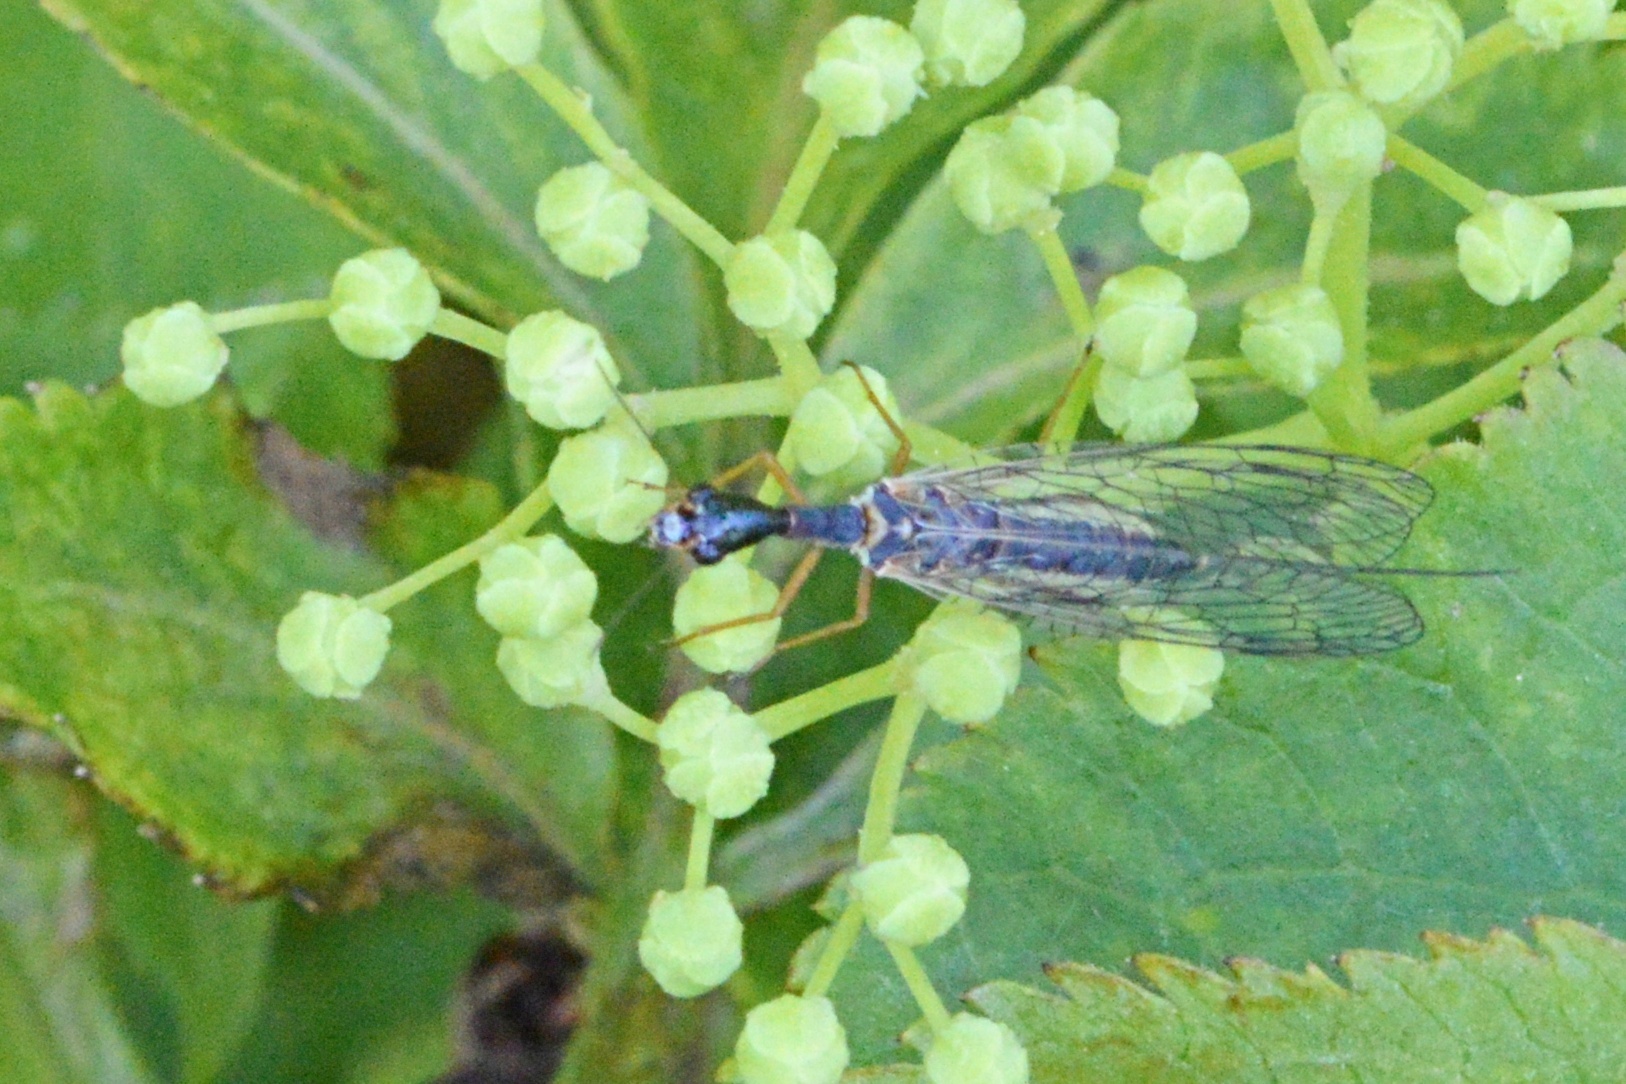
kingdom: Animalia
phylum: Arthropoda
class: Insecta
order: Raphidioptera
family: Raphidiidae
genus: Dichrostigma
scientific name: Dichrostigma flavipes
